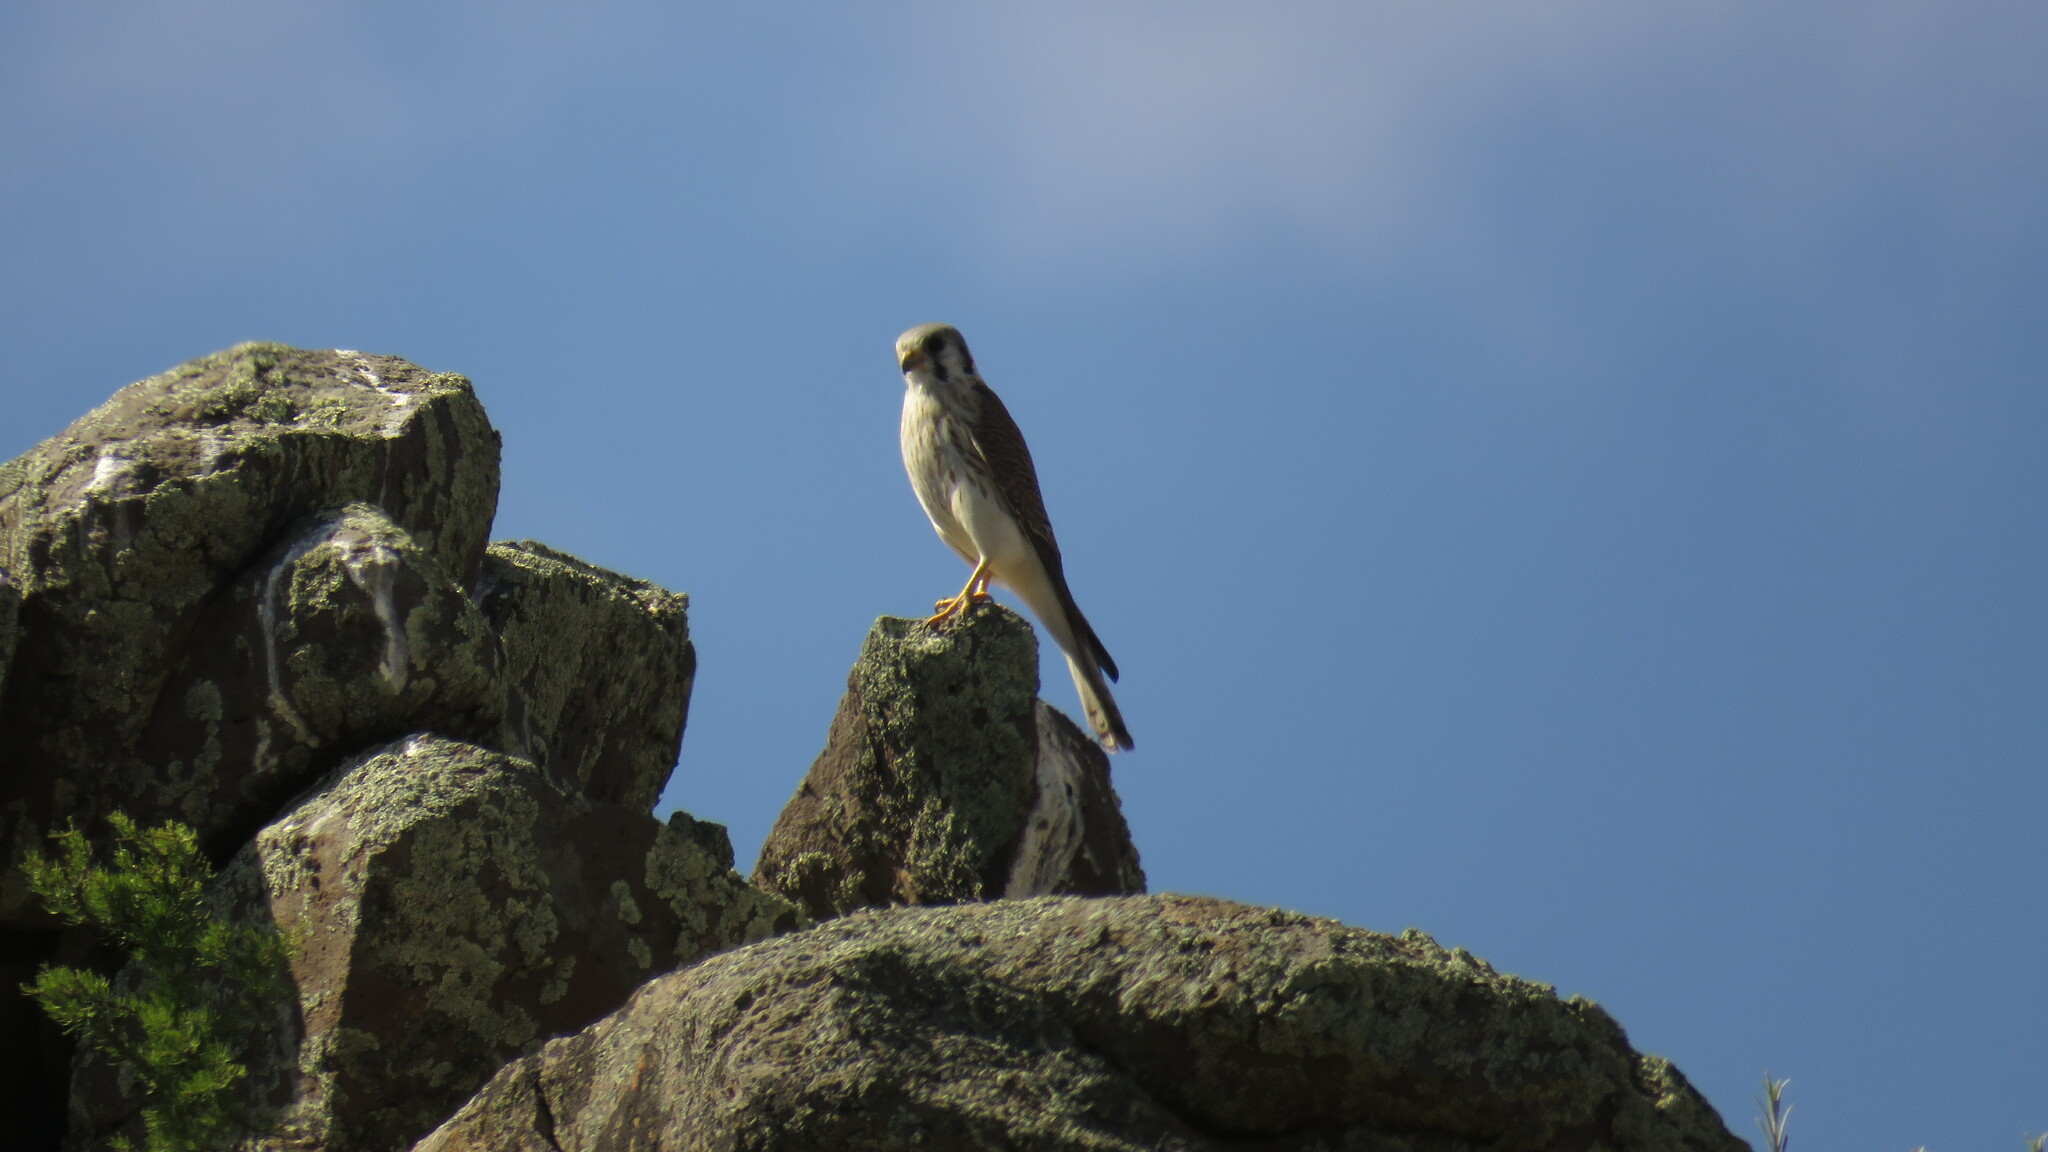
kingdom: Animalia
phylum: Chordata
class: Aves
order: Falconiformes
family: Falconidae
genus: Falco
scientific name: Falco sparverius
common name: American kestrel
